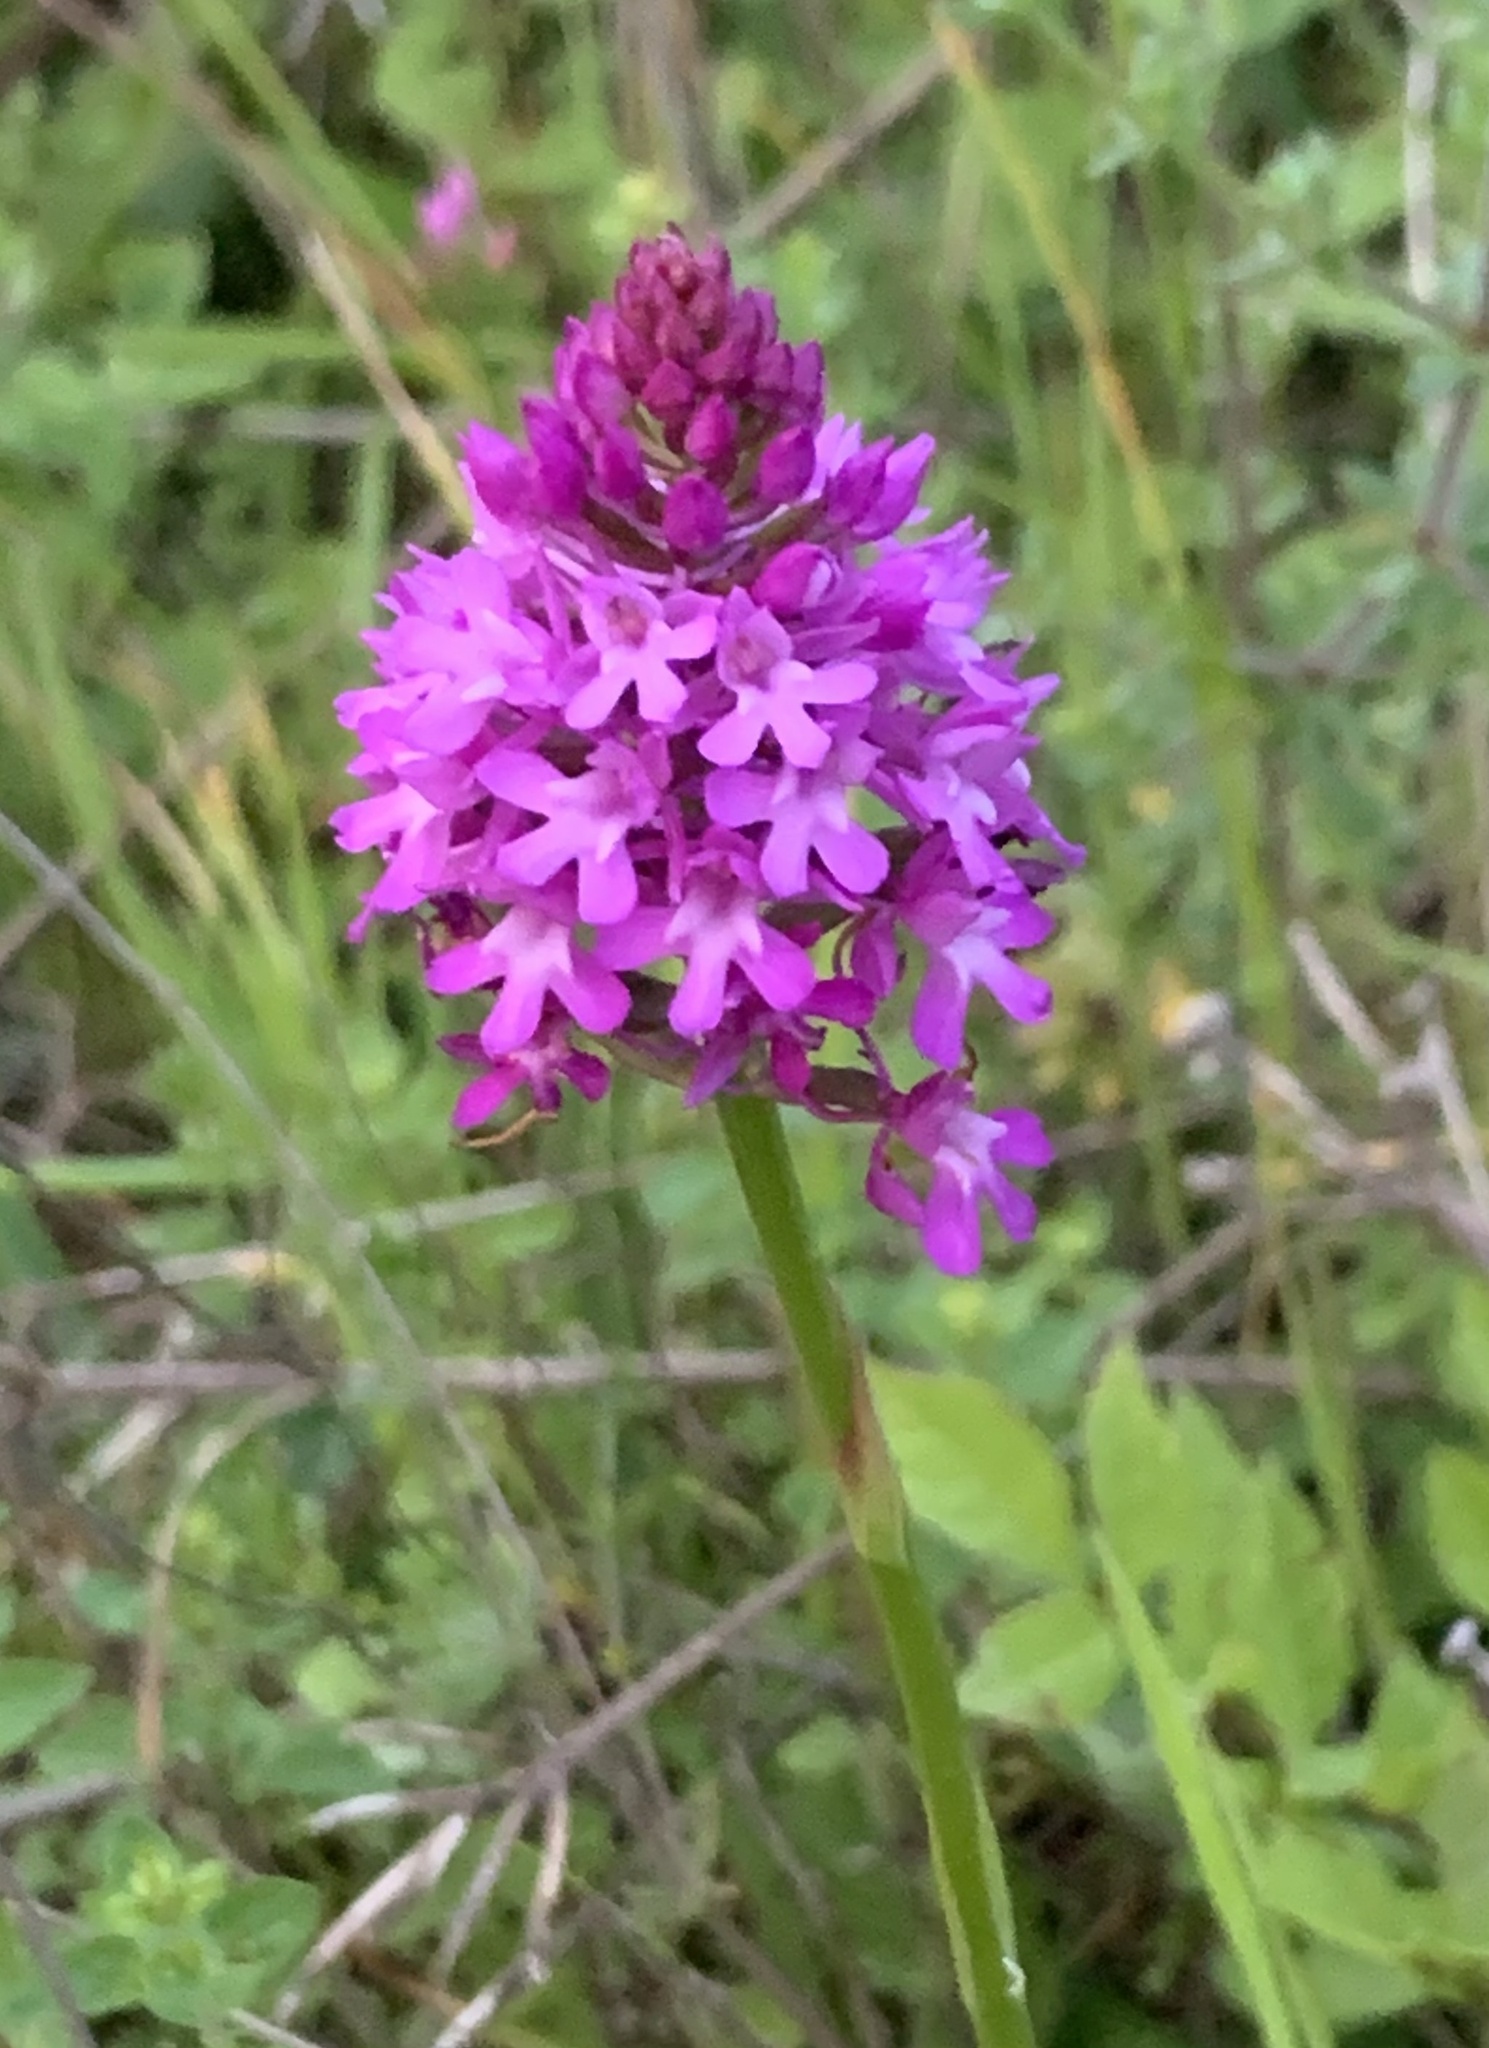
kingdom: Plantae
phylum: Tracheophyta
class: Liliopsida
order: Asparagales
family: Orchidaceae
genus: Anacamptis
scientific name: Anacamptis pyramidalis
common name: Pyramidal orchid
